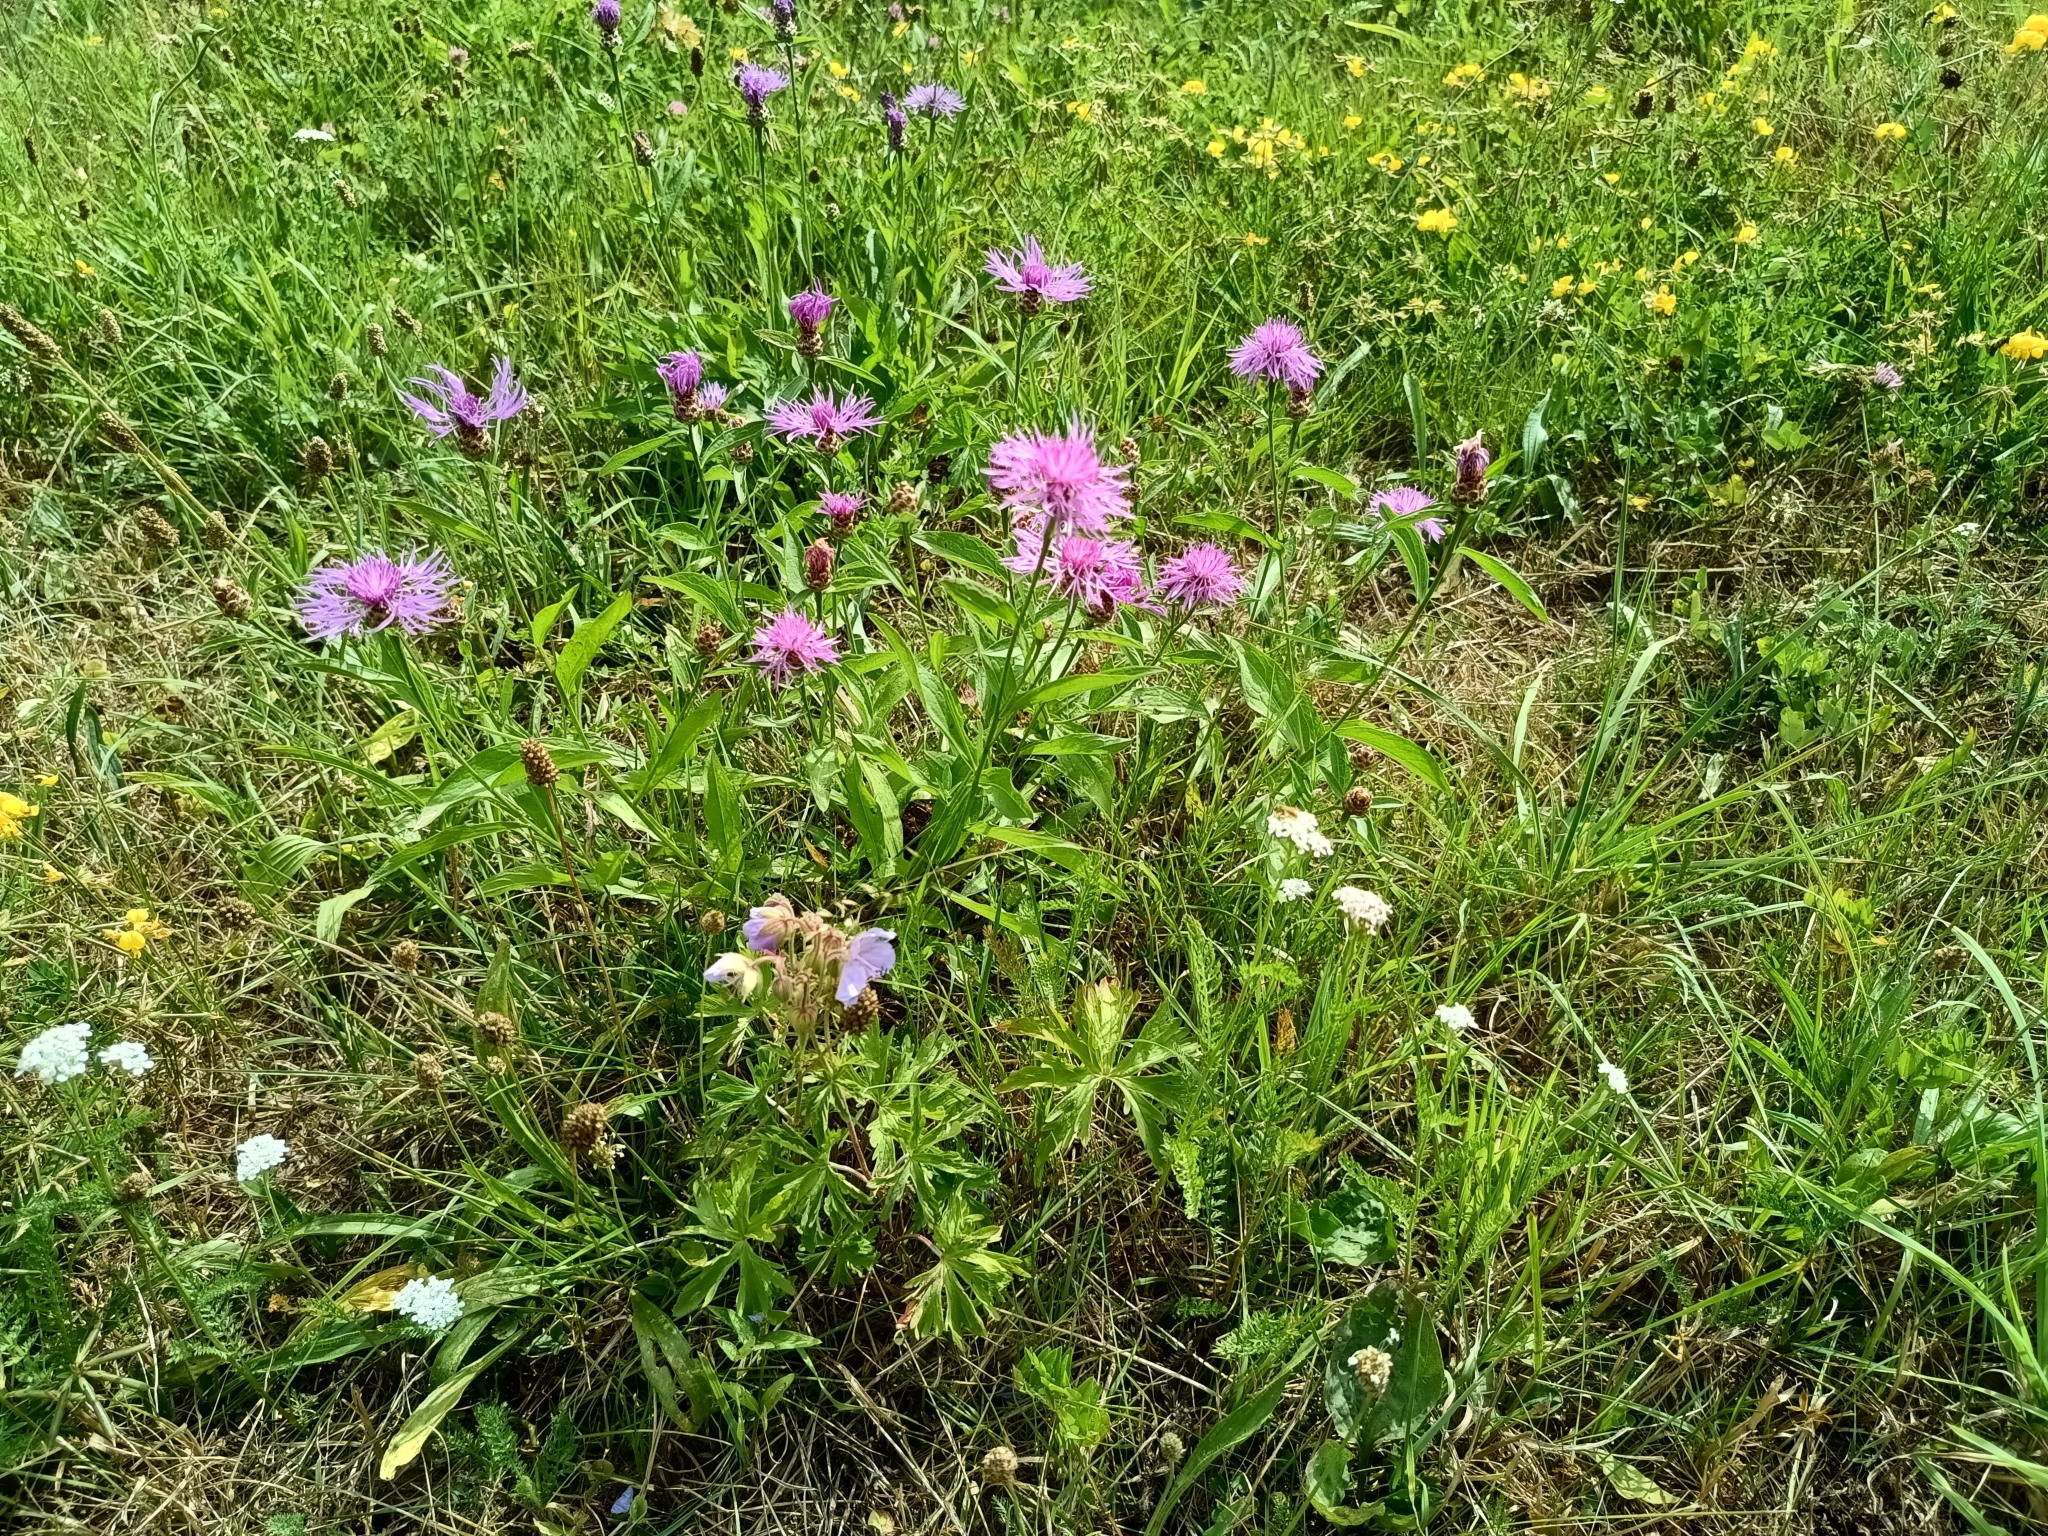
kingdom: Plantae
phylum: Tracheophyta
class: Magnoliopsida
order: Asterales
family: Asteraceae
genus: Centaurea
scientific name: Centaurea jacea
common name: Brown knapweed
